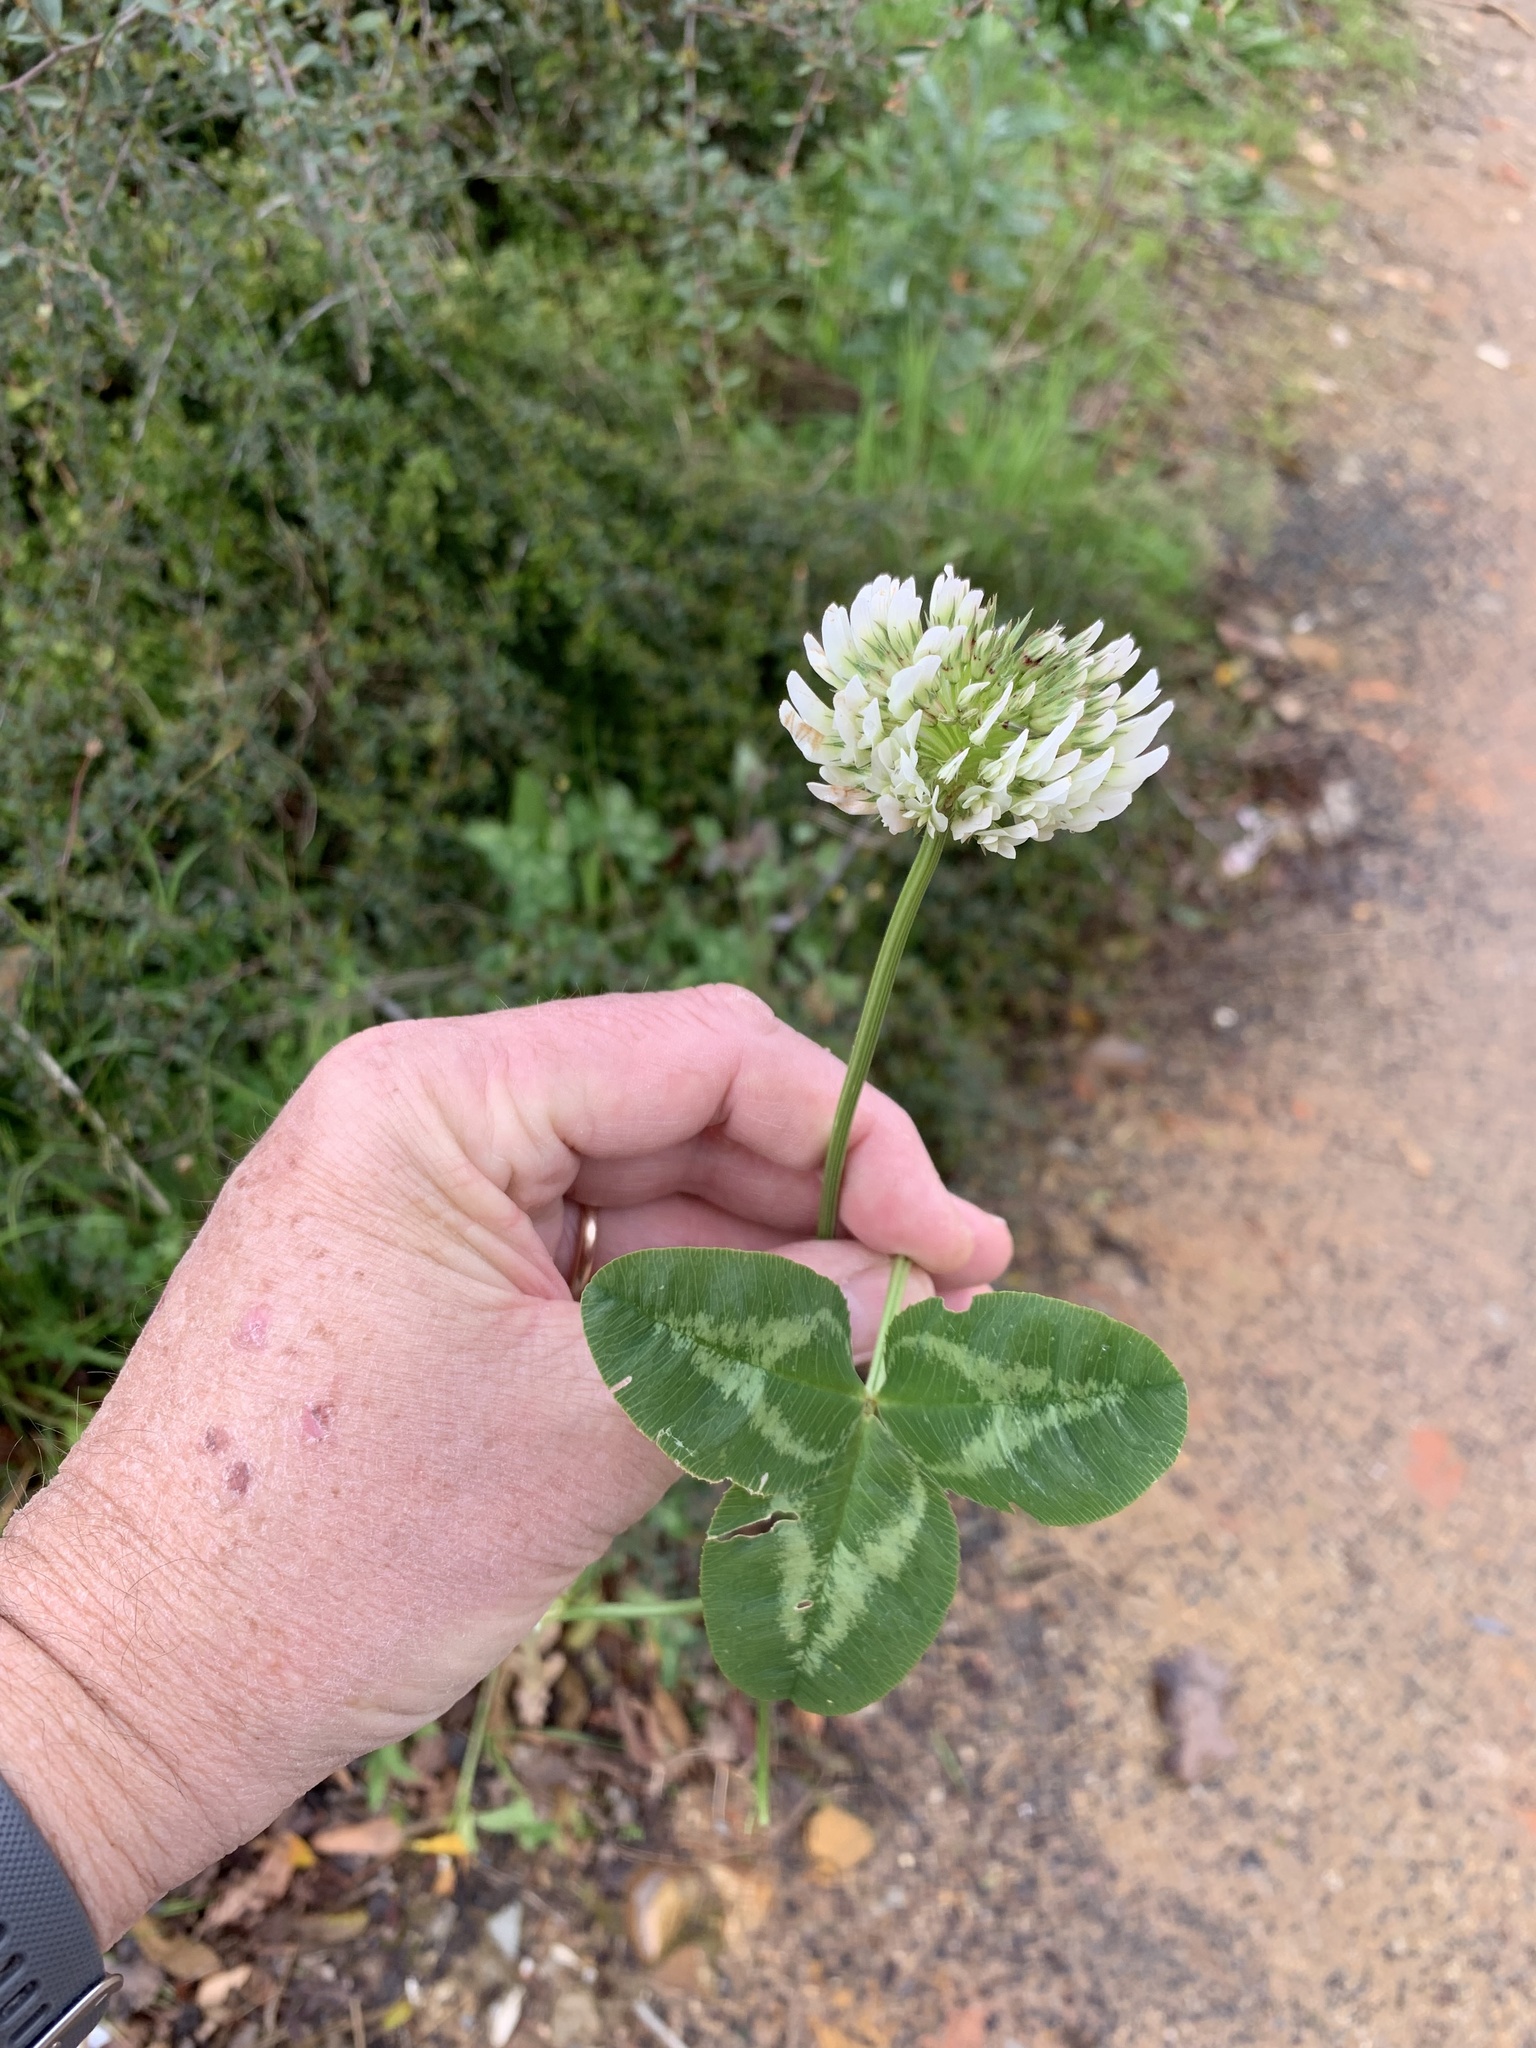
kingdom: Plantae
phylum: Tracheophyta
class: Magnoliopsida
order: Fabales
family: Fabaceae
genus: Trifolium
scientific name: Trifolium repens
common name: White clover
